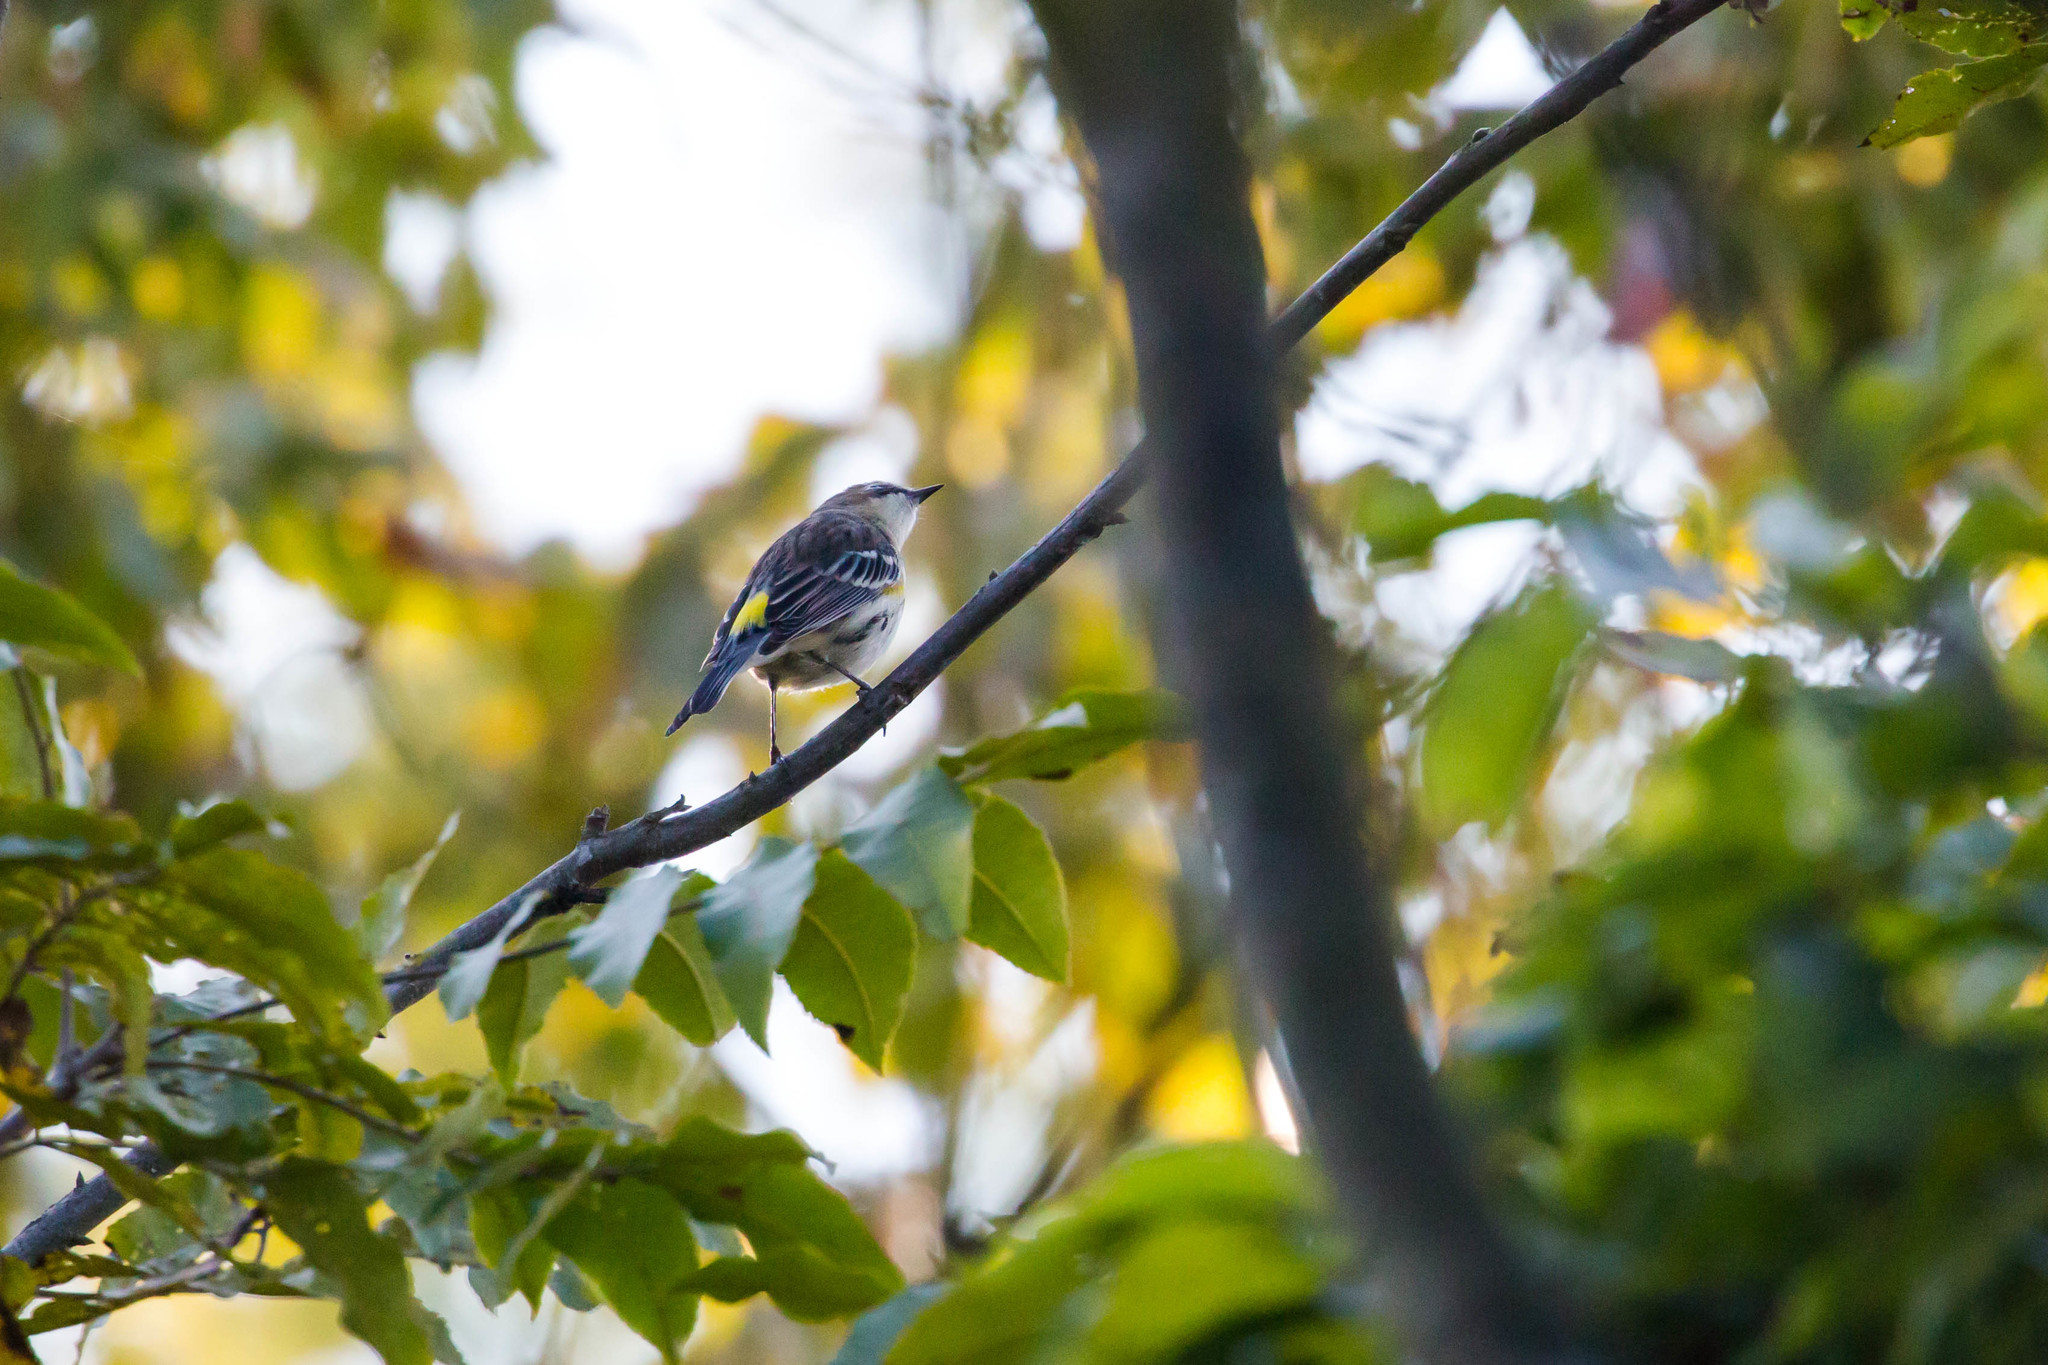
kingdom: Animalia
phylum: Chordata
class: Aves
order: Passeriformes
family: Parulidae
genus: Setophaga
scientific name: Setophaga coronata
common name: Myrtle warbler
